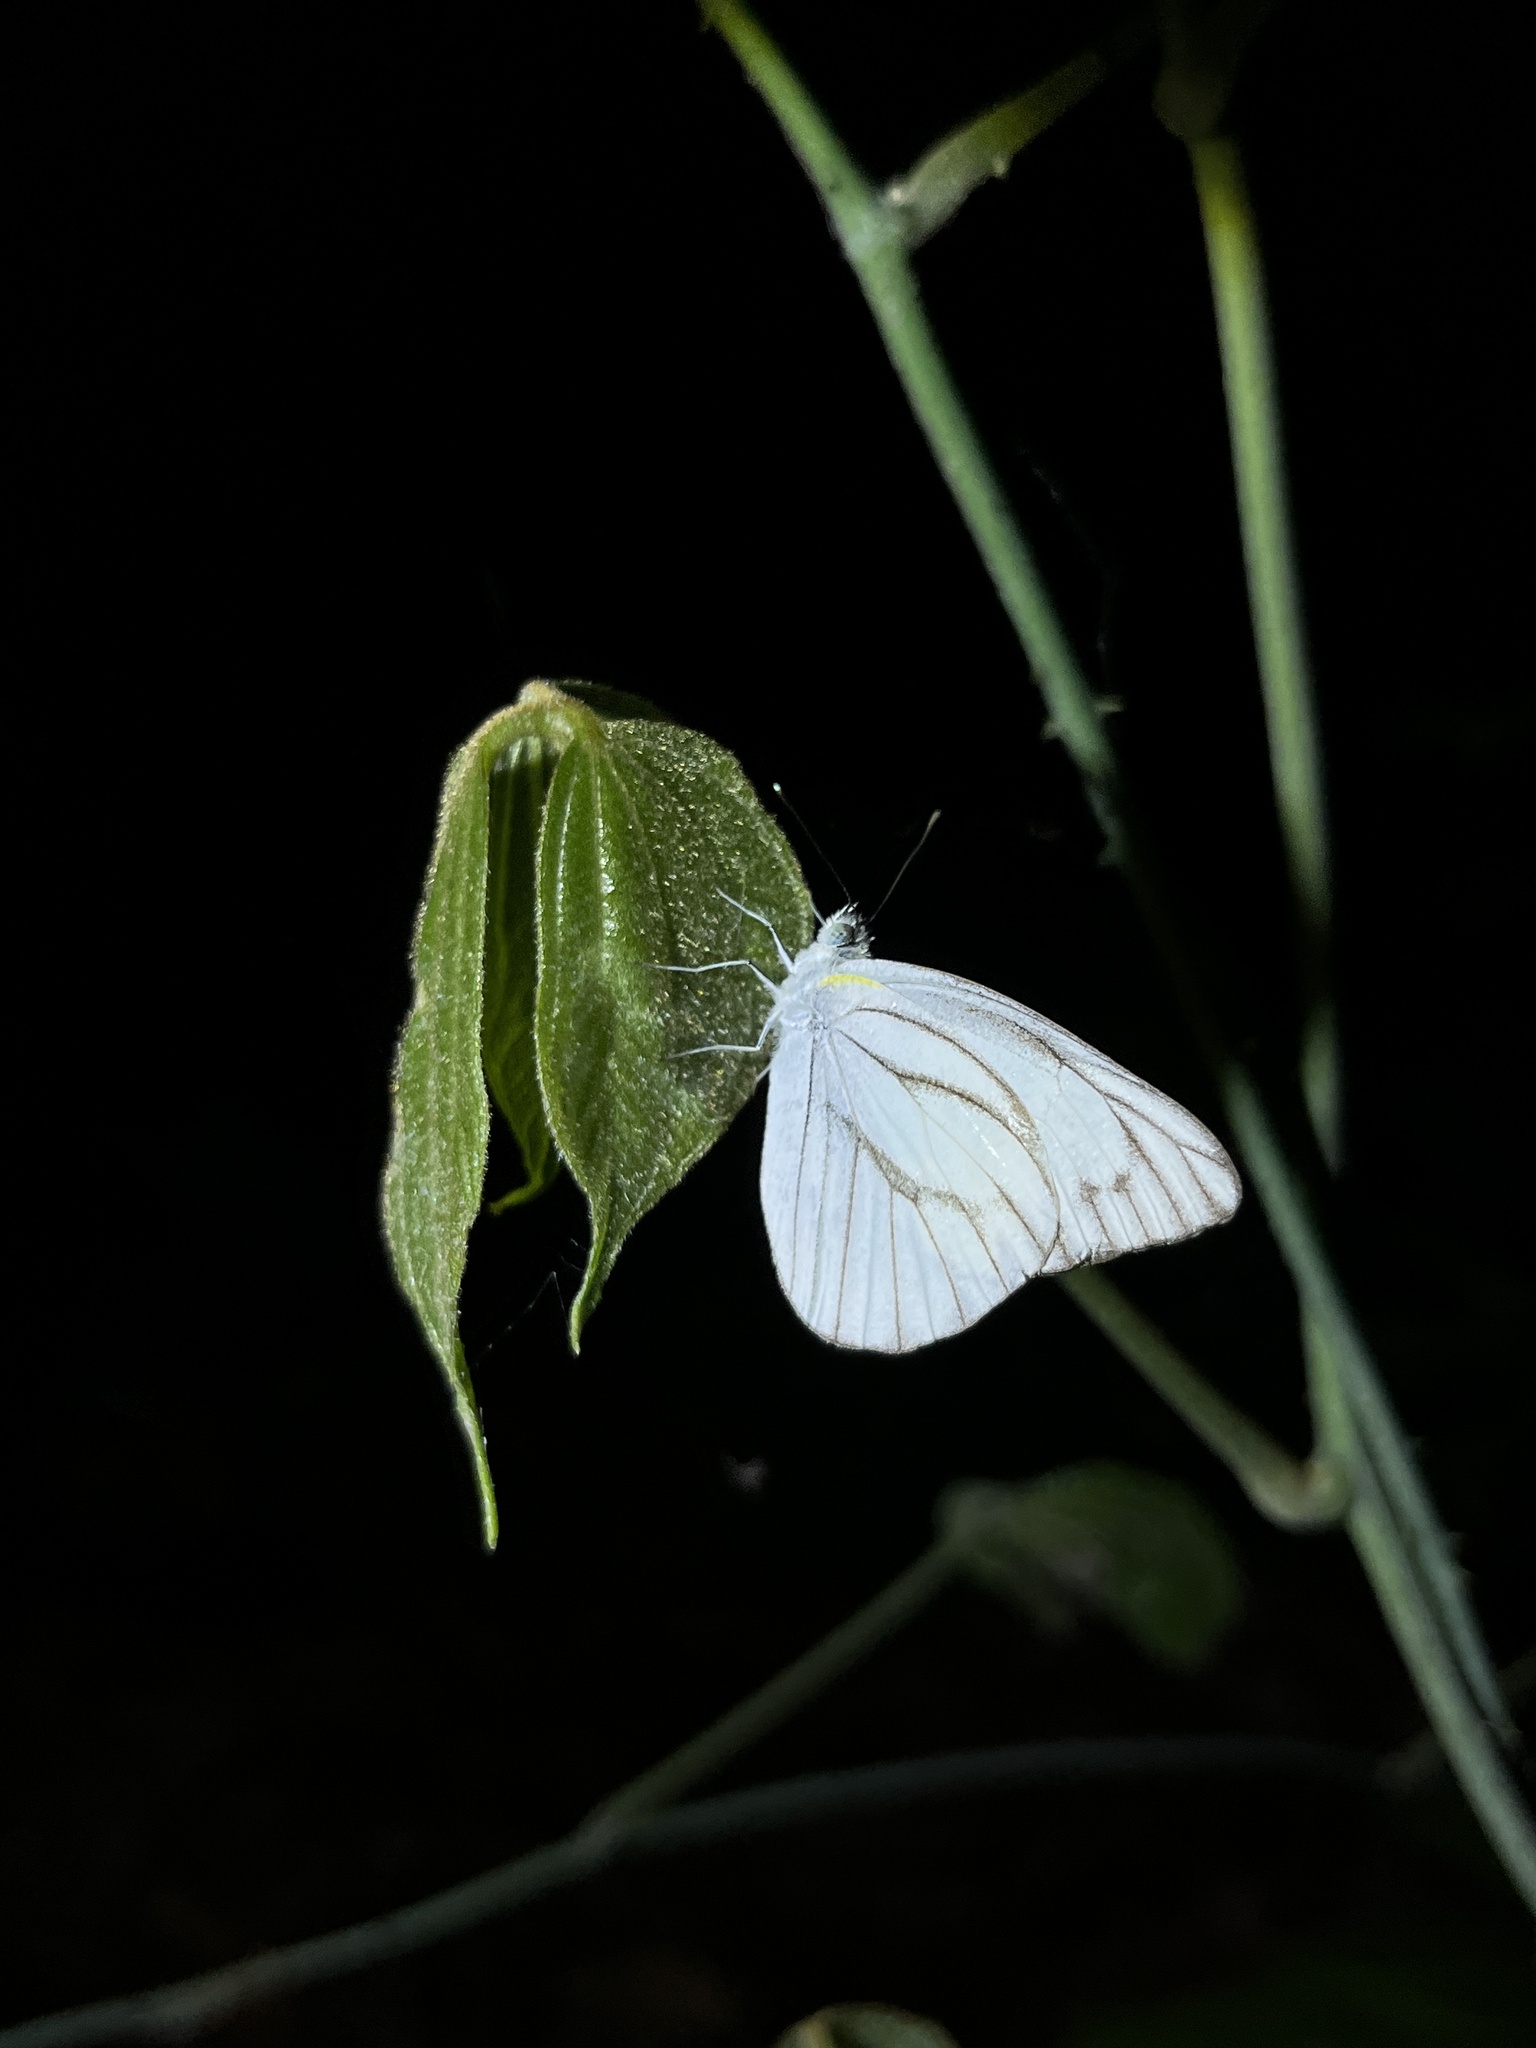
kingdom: Animalia
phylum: Arthropoda
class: Insecta
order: Lepidoptera
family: Pieridae
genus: Appias
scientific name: Appias libythea
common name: Striped albatross
